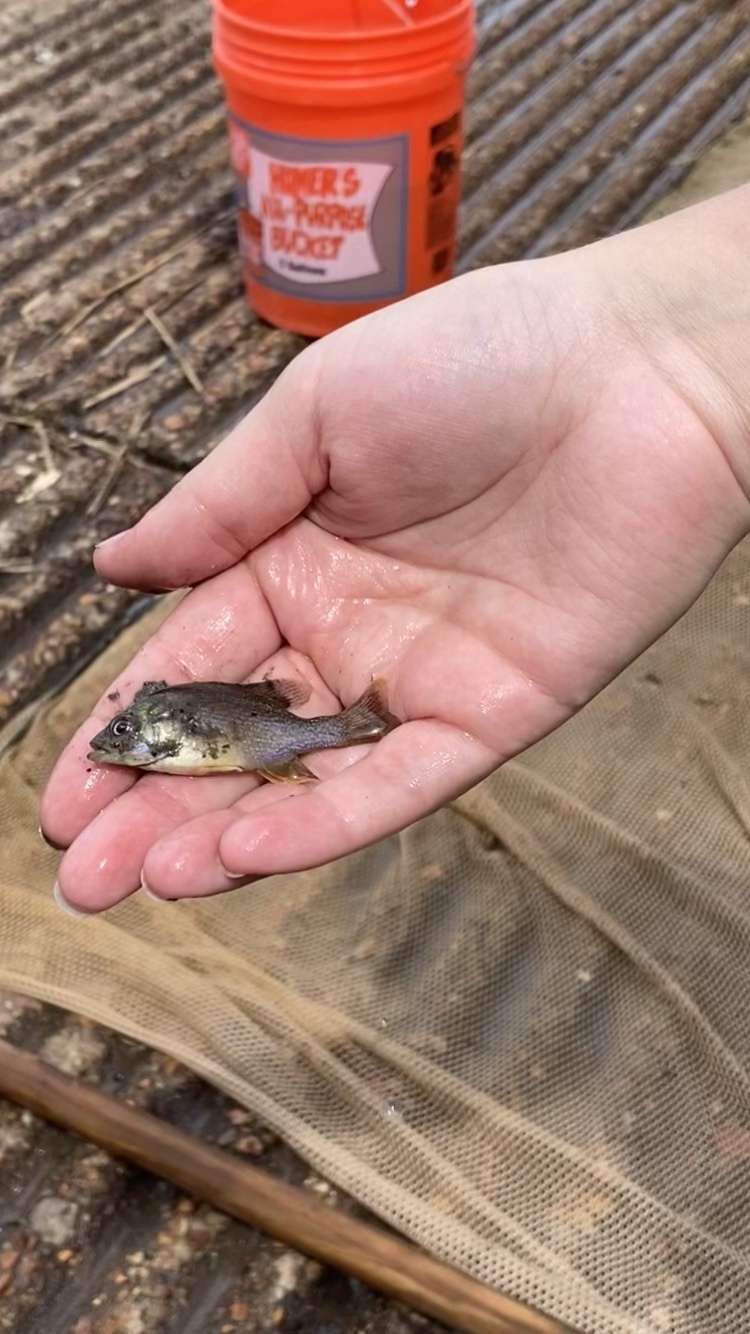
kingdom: Animalia
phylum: Chordata
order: Perciformes
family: Centrarchidae
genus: Lepomis
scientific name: Lepomis cyanellus
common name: Green sunfish
